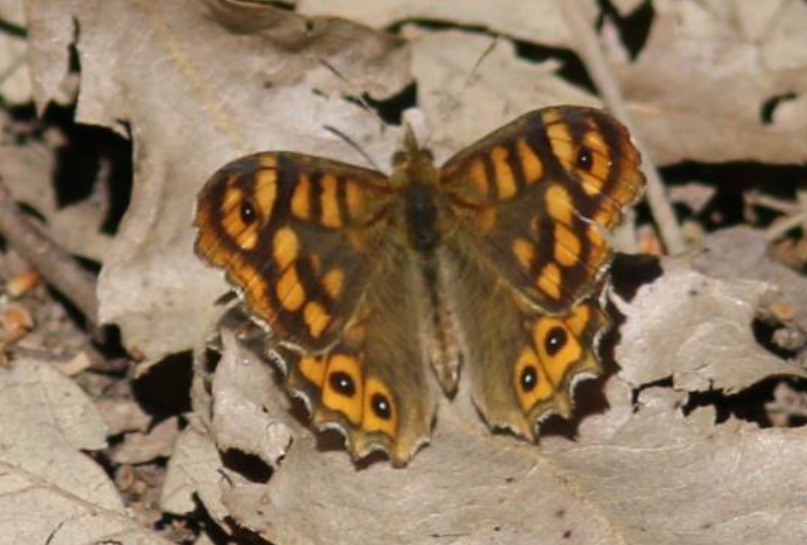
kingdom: Animalia
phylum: Arthropoda
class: Insecta
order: Lepidoptera
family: Nymphalidae
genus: Pararge
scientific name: Pararge aegeria
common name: Speckled wood
